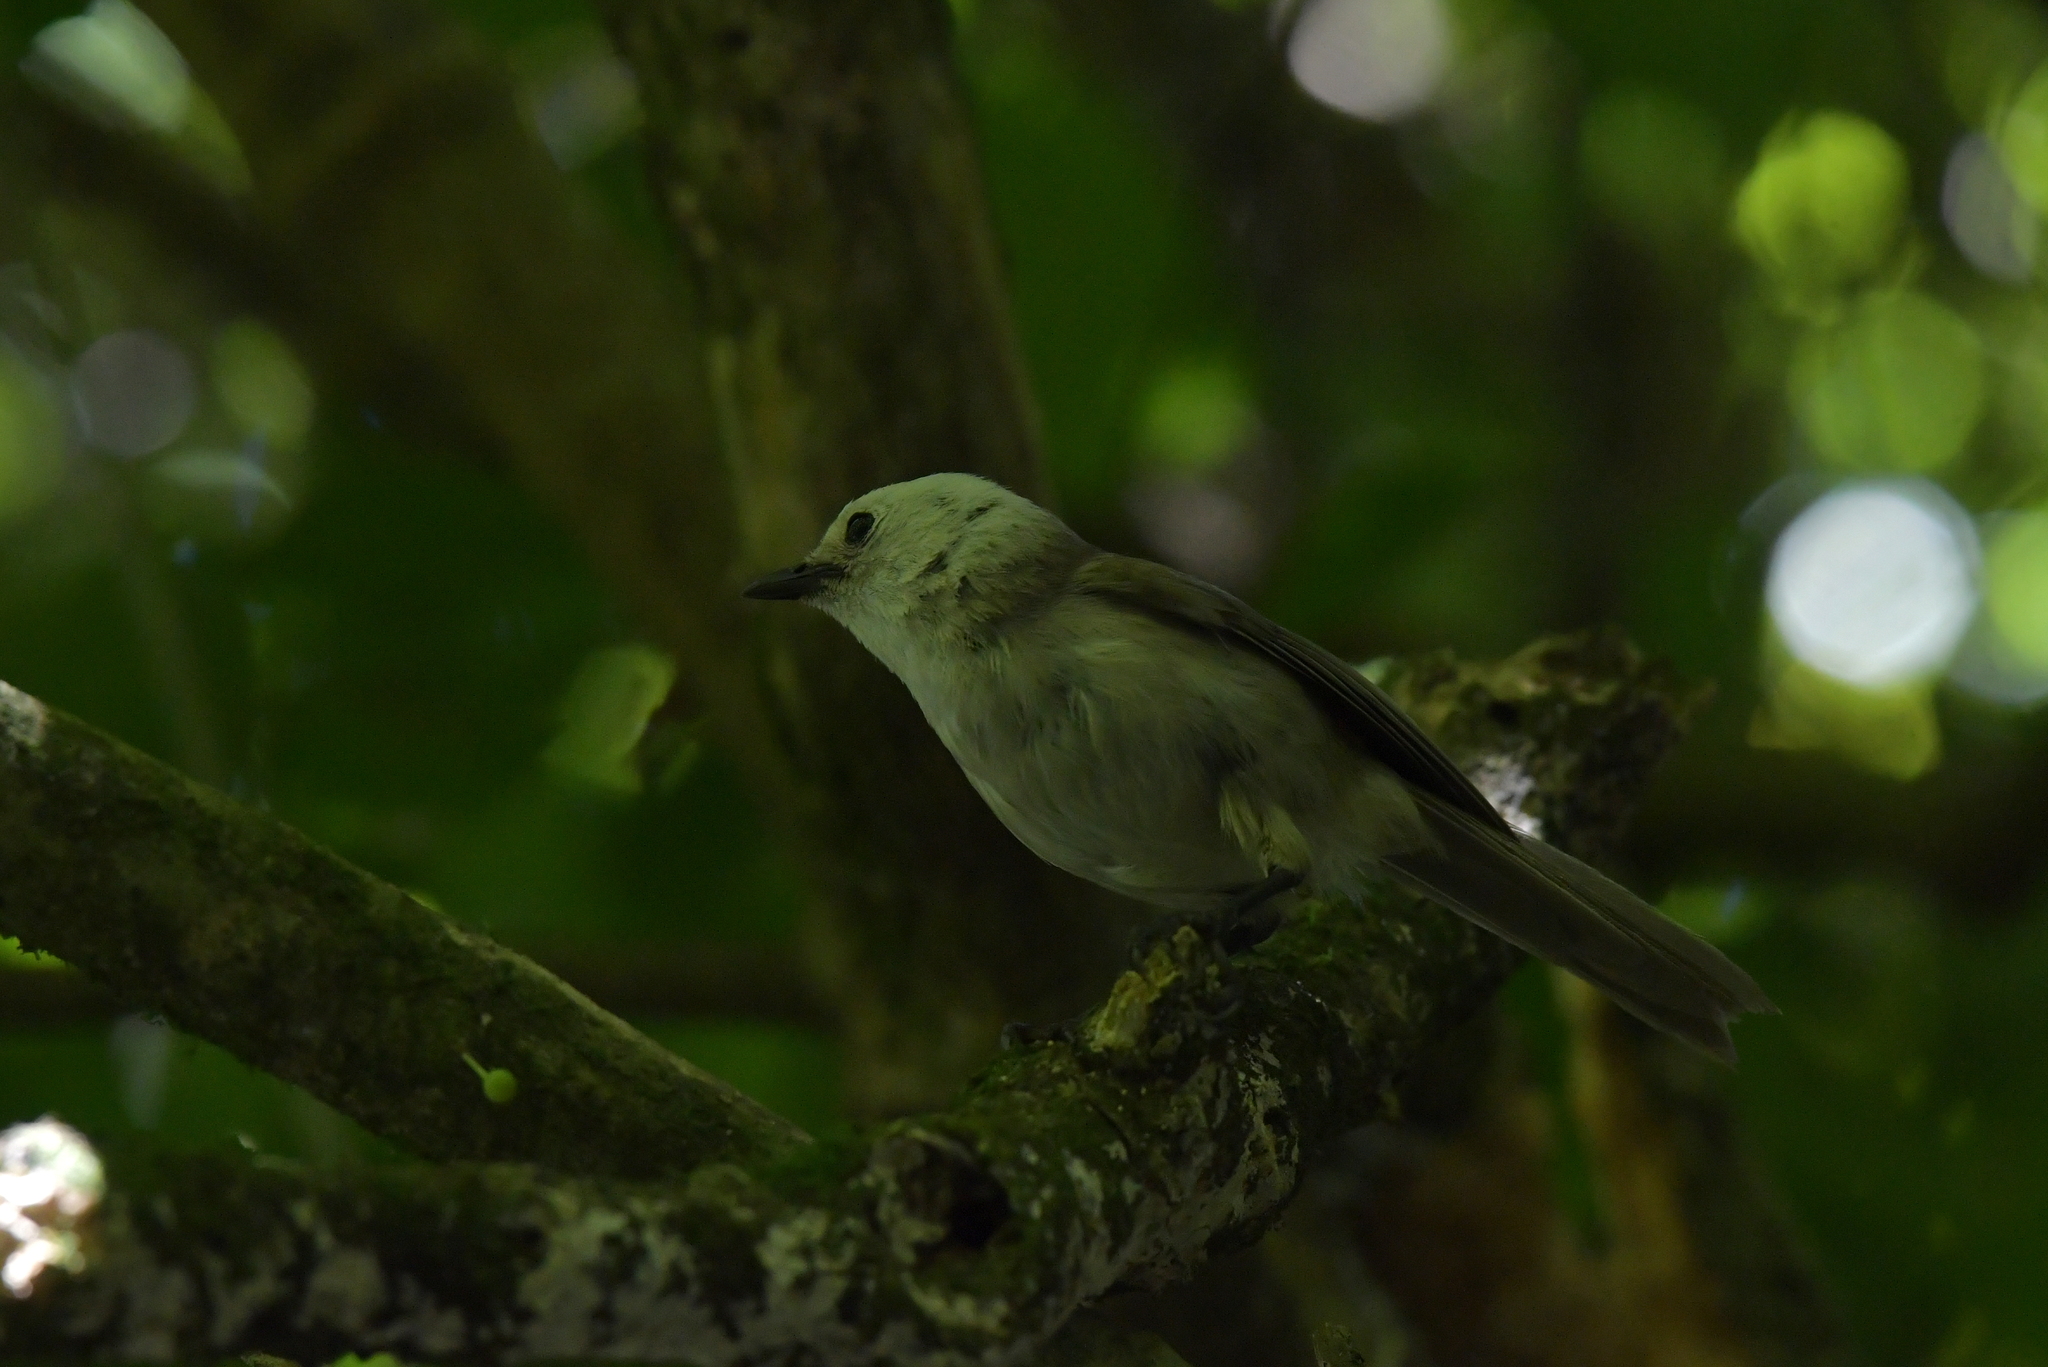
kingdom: Animalia
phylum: Chordata
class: Aves
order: Passeriformes
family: Acanthizidae
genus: Mohoua
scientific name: Mohoua albicilla
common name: Whitehead
